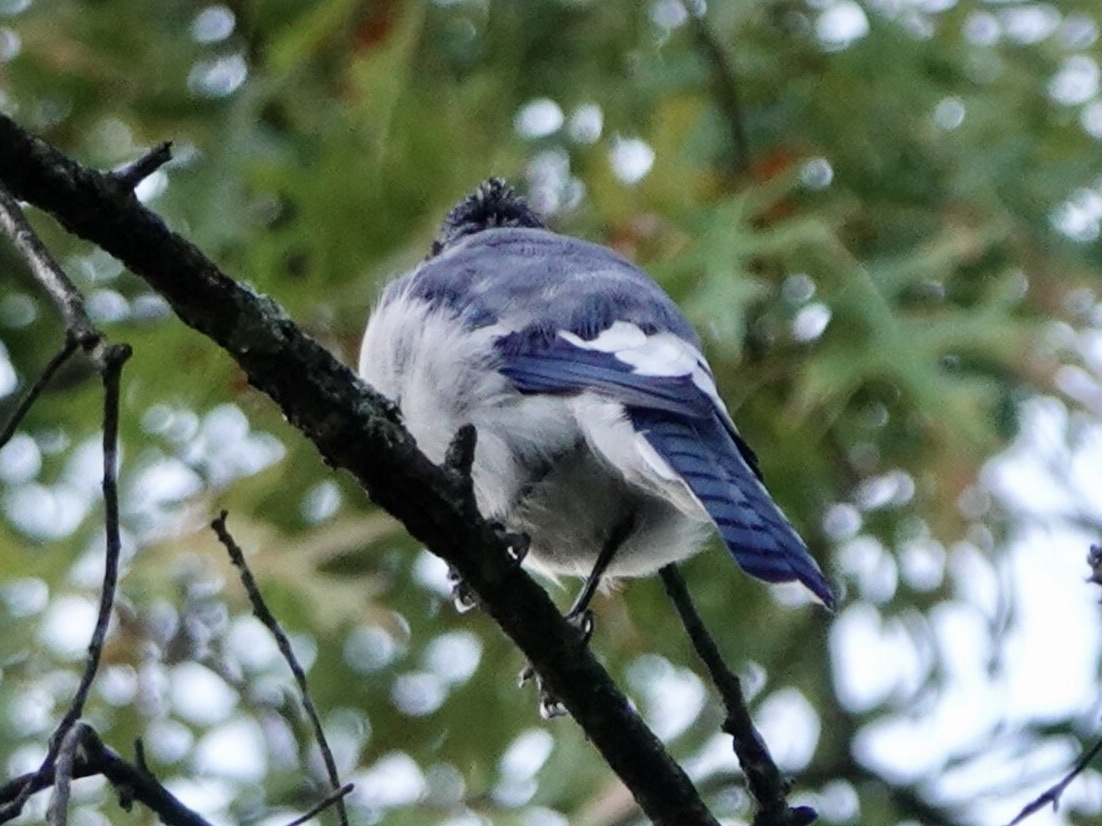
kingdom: Animalia
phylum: Chordata
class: Aves
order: Passeriformes
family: Corvidae
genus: Cyanocitta
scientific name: Cyanocitta cristata
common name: Blue jay
